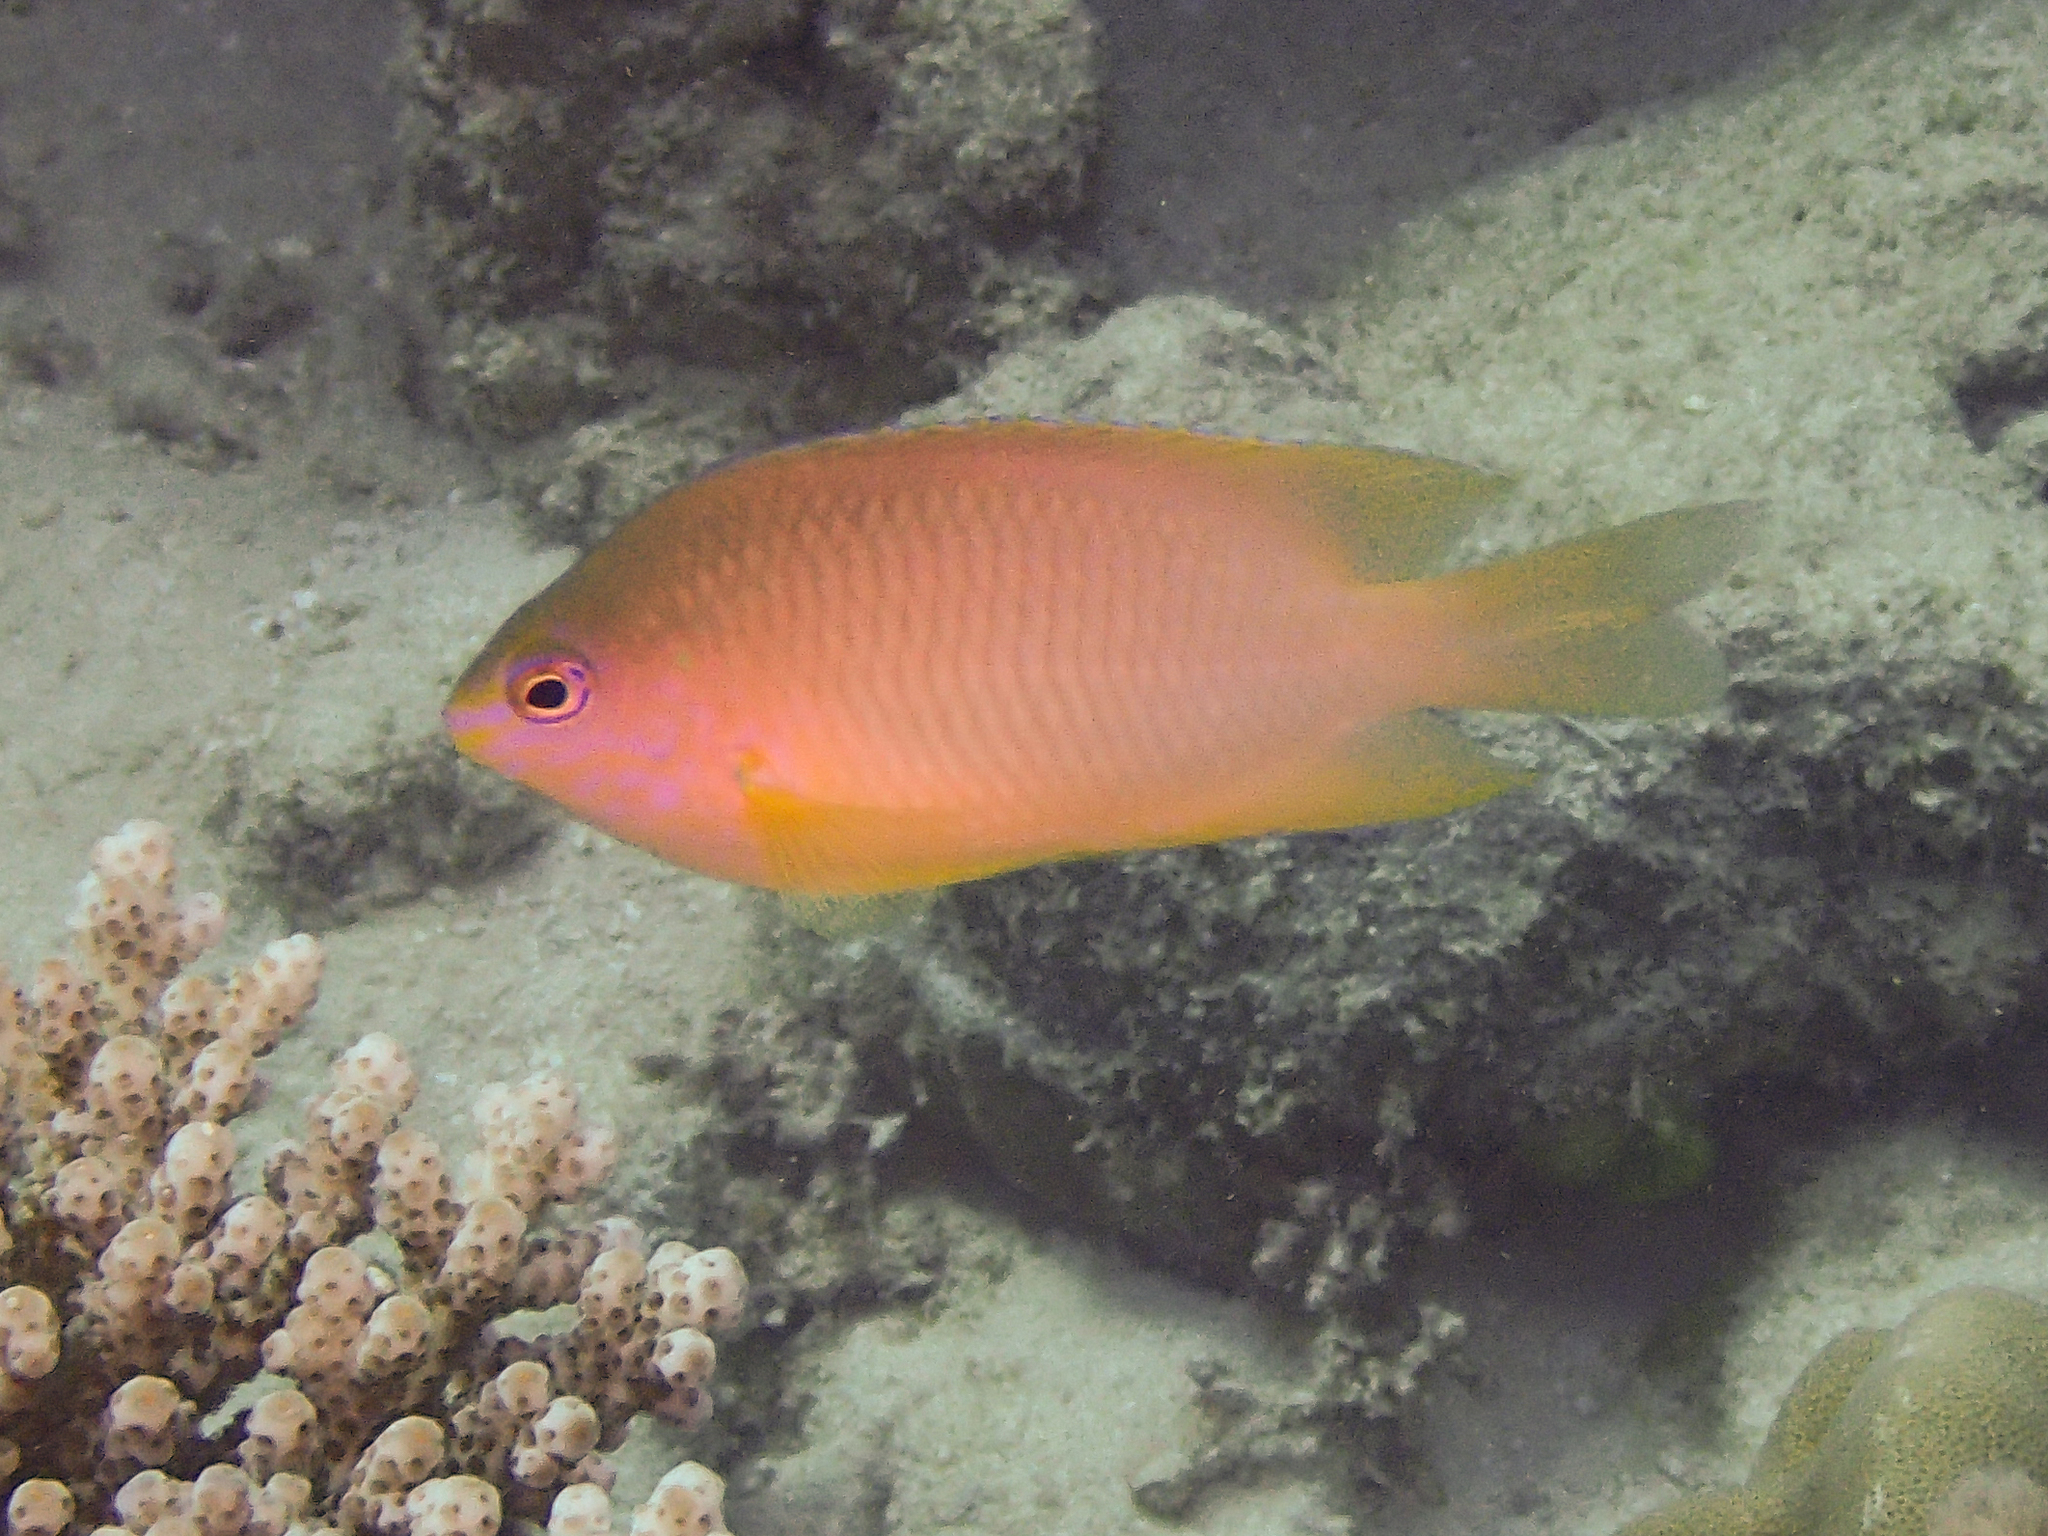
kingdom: Animalia
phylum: Chordata
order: Perciformes
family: Pomacentridae
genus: Pomacentrus
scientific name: Pomacentrus amboinensis
